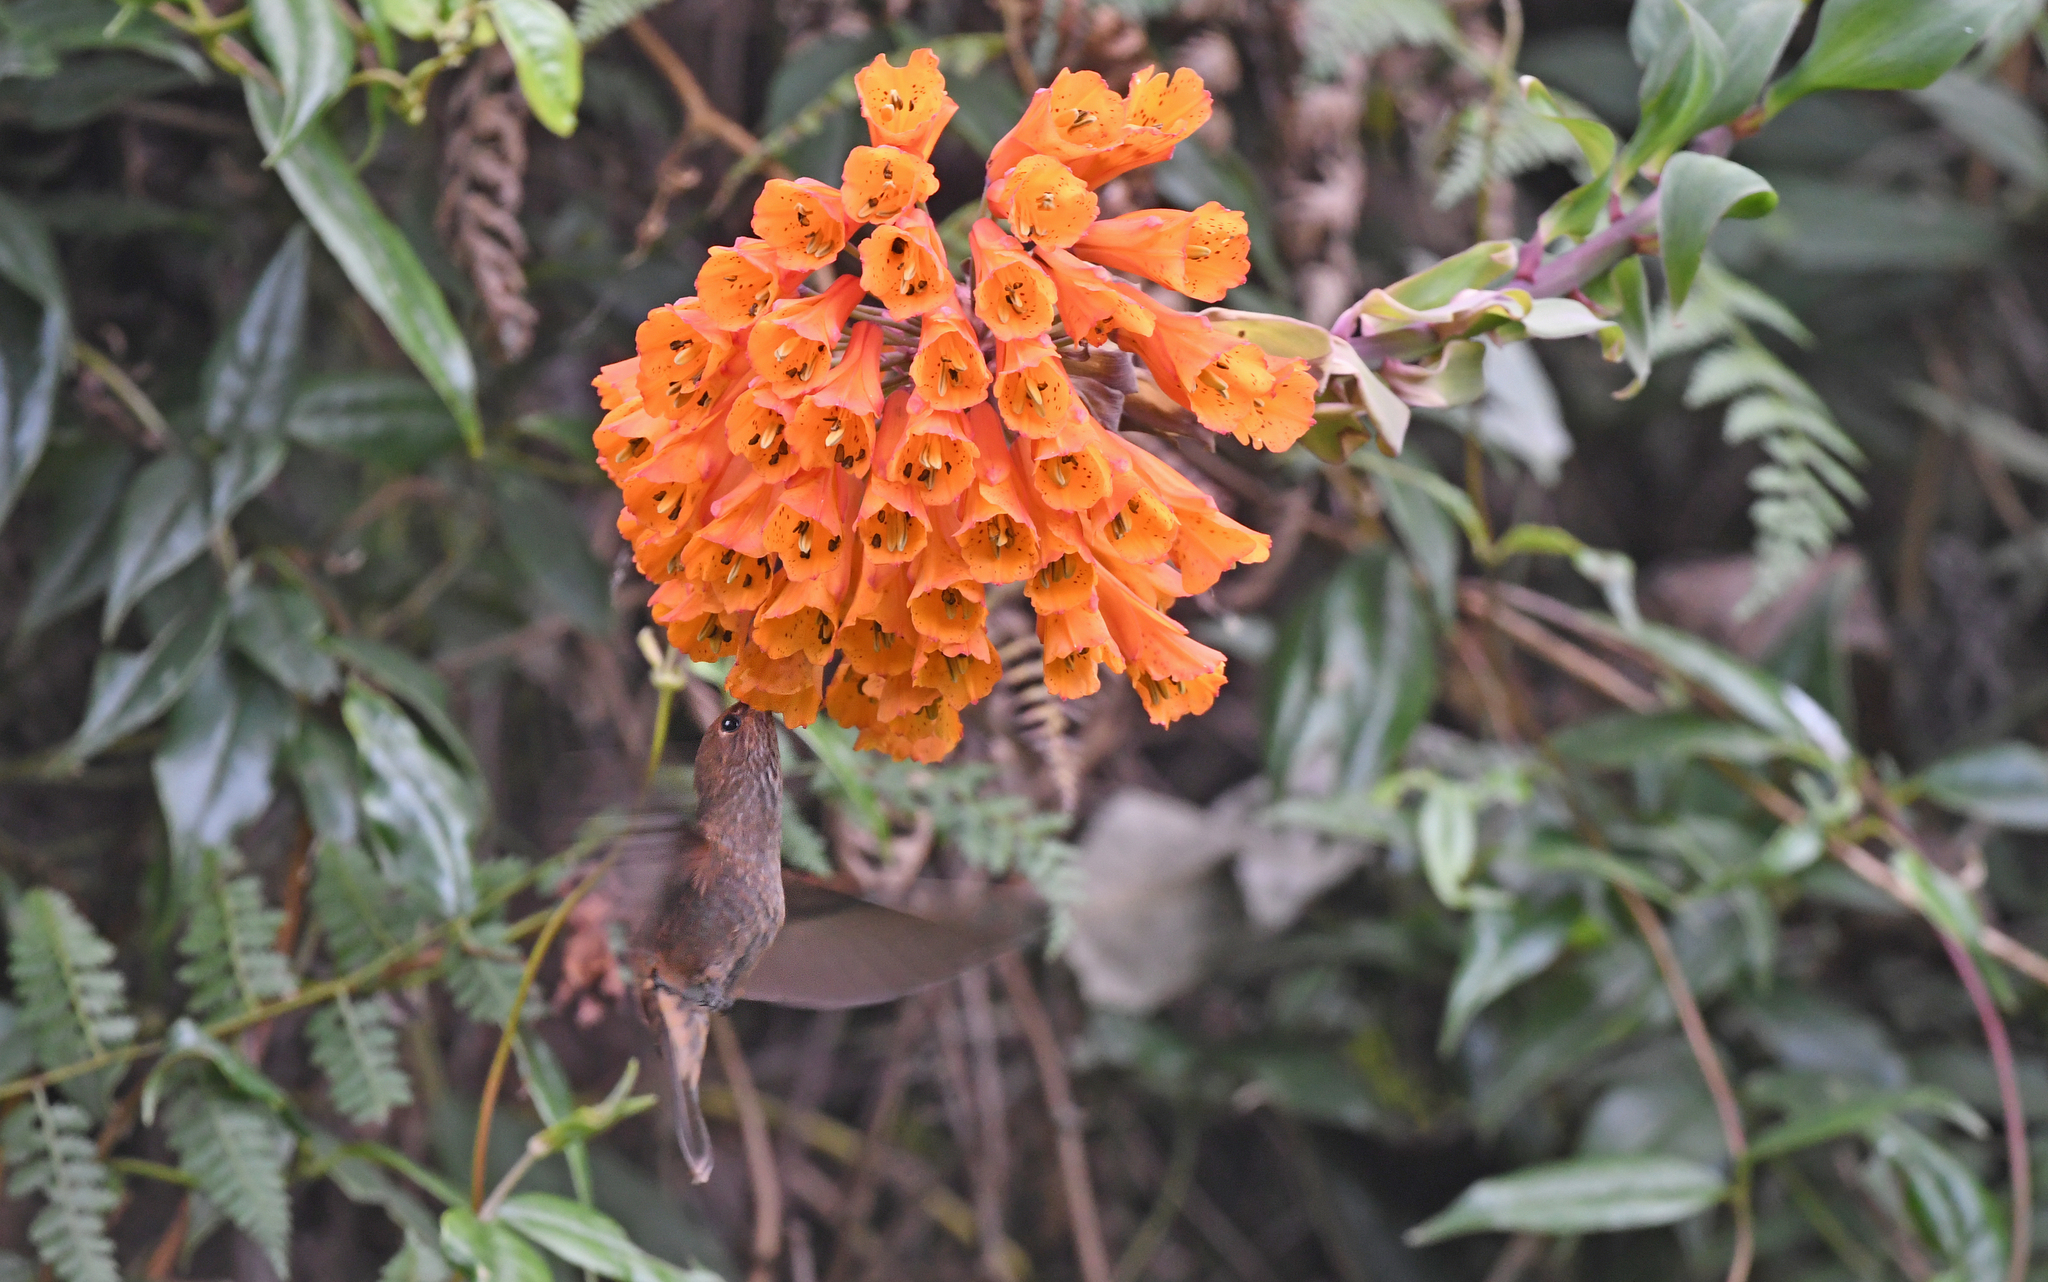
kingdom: Animalia
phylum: Chordata
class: Aves
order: Apodiformes
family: Trochilidae
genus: Coeligena
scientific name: Coeligena coeligena
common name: Bronzy inca
